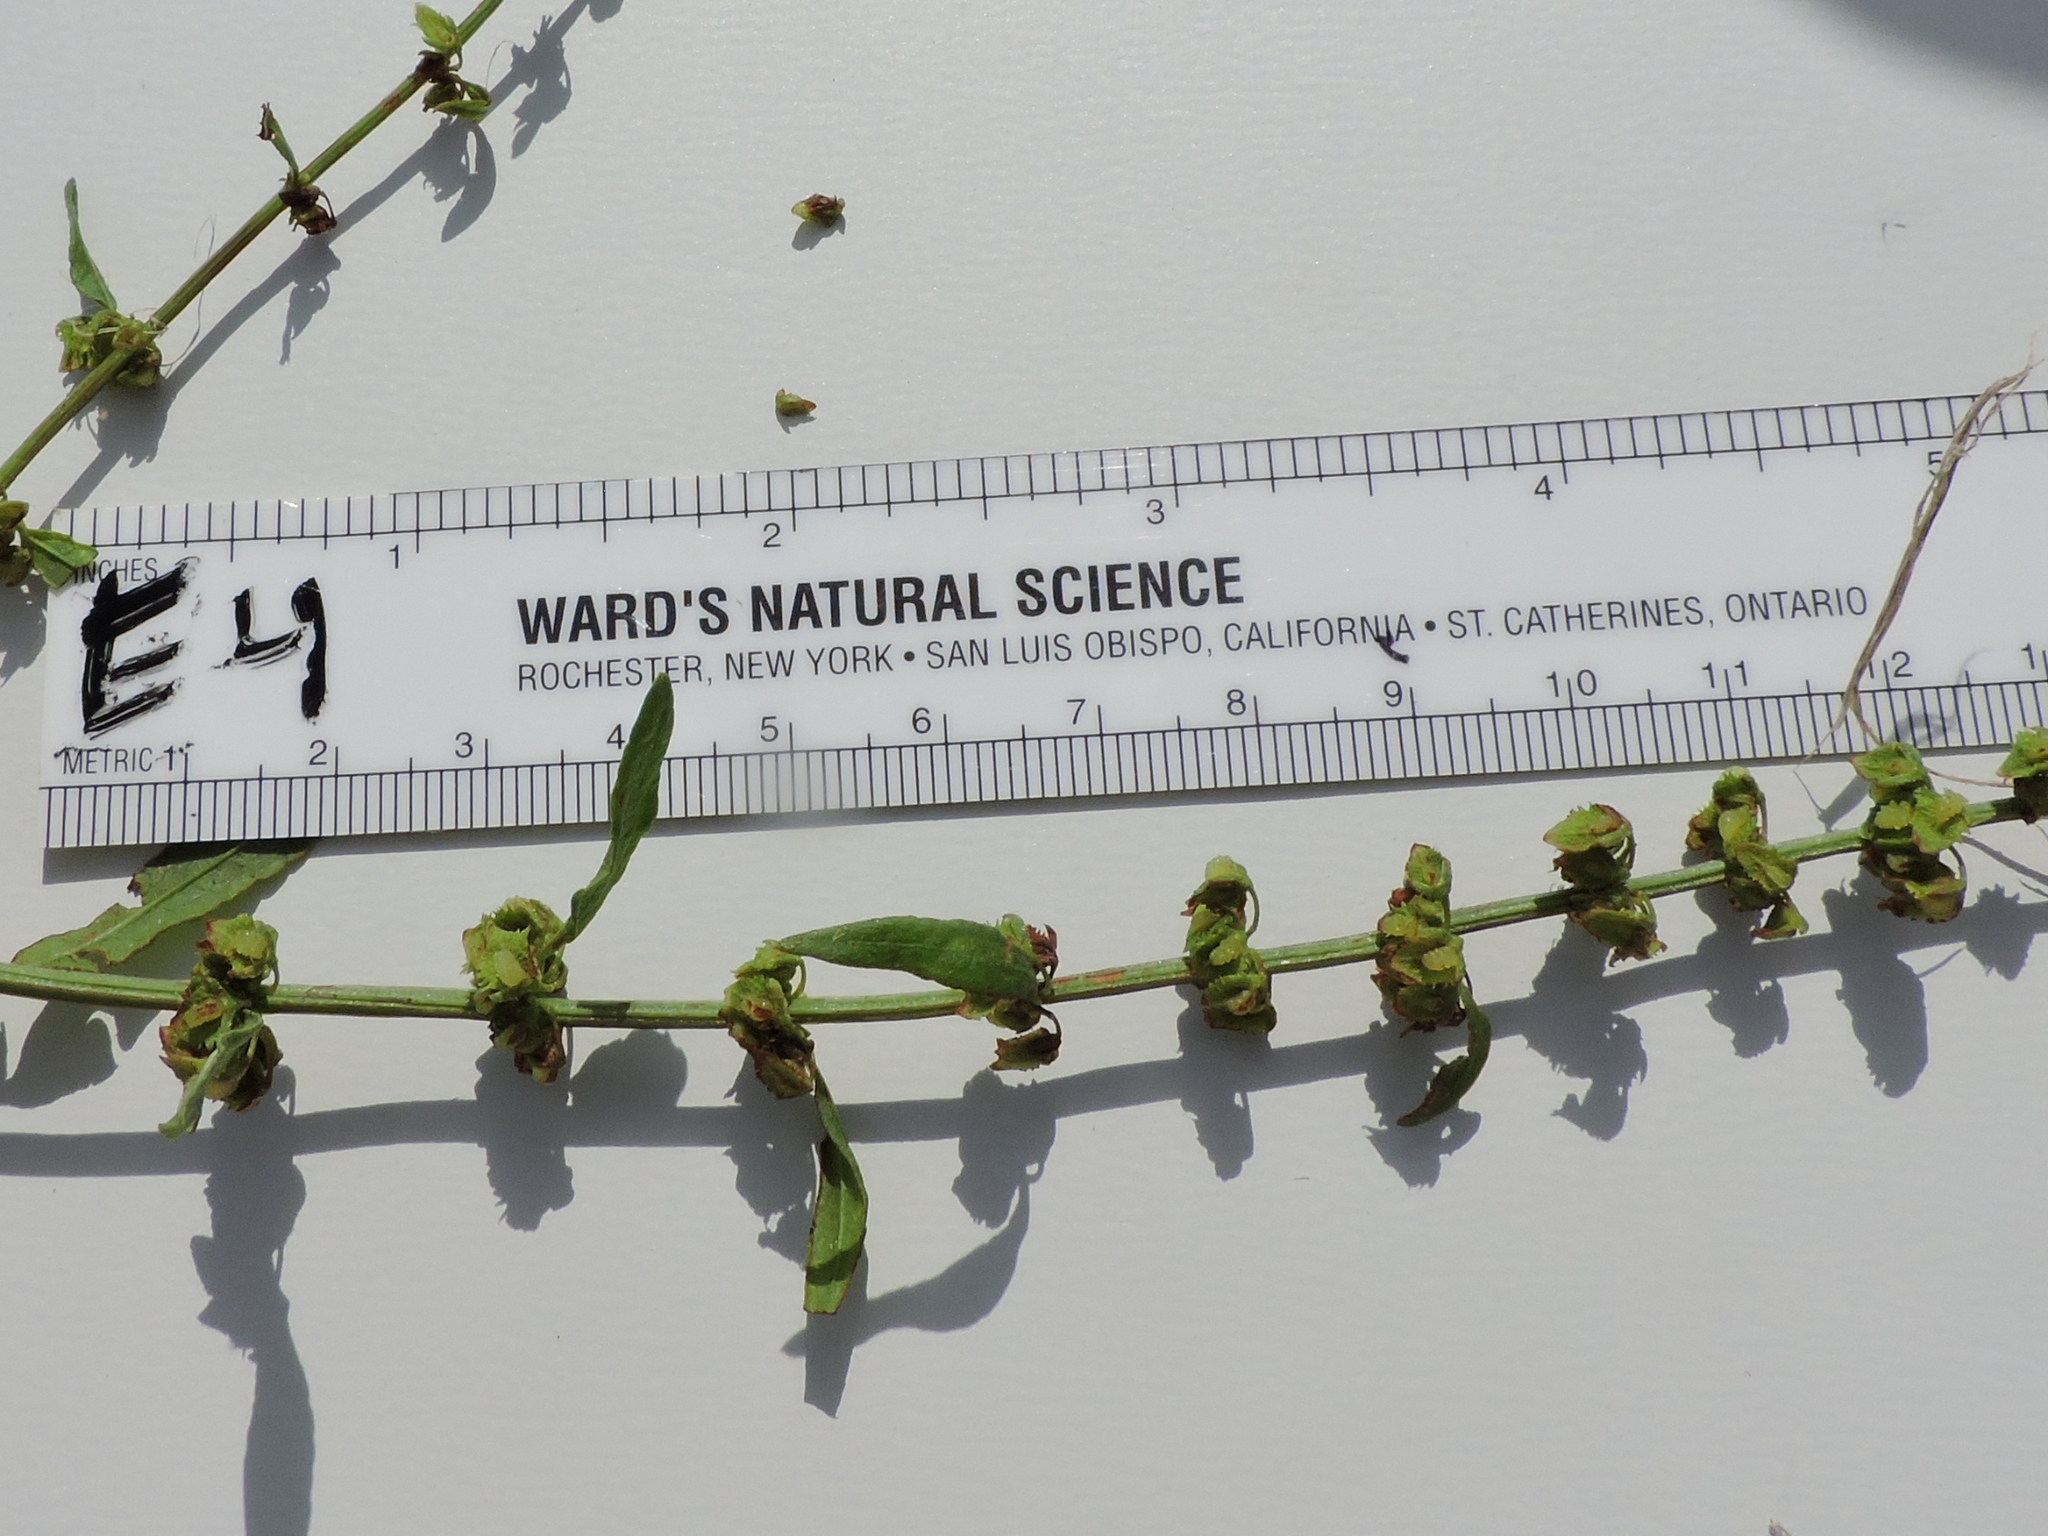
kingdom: Plantae
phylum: Tracheophyta
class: Magnoliopsida
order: Caryophyllales
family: Polygonaceae
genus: Rumex
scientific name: Rumex pulcher
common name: Fiddle dock
